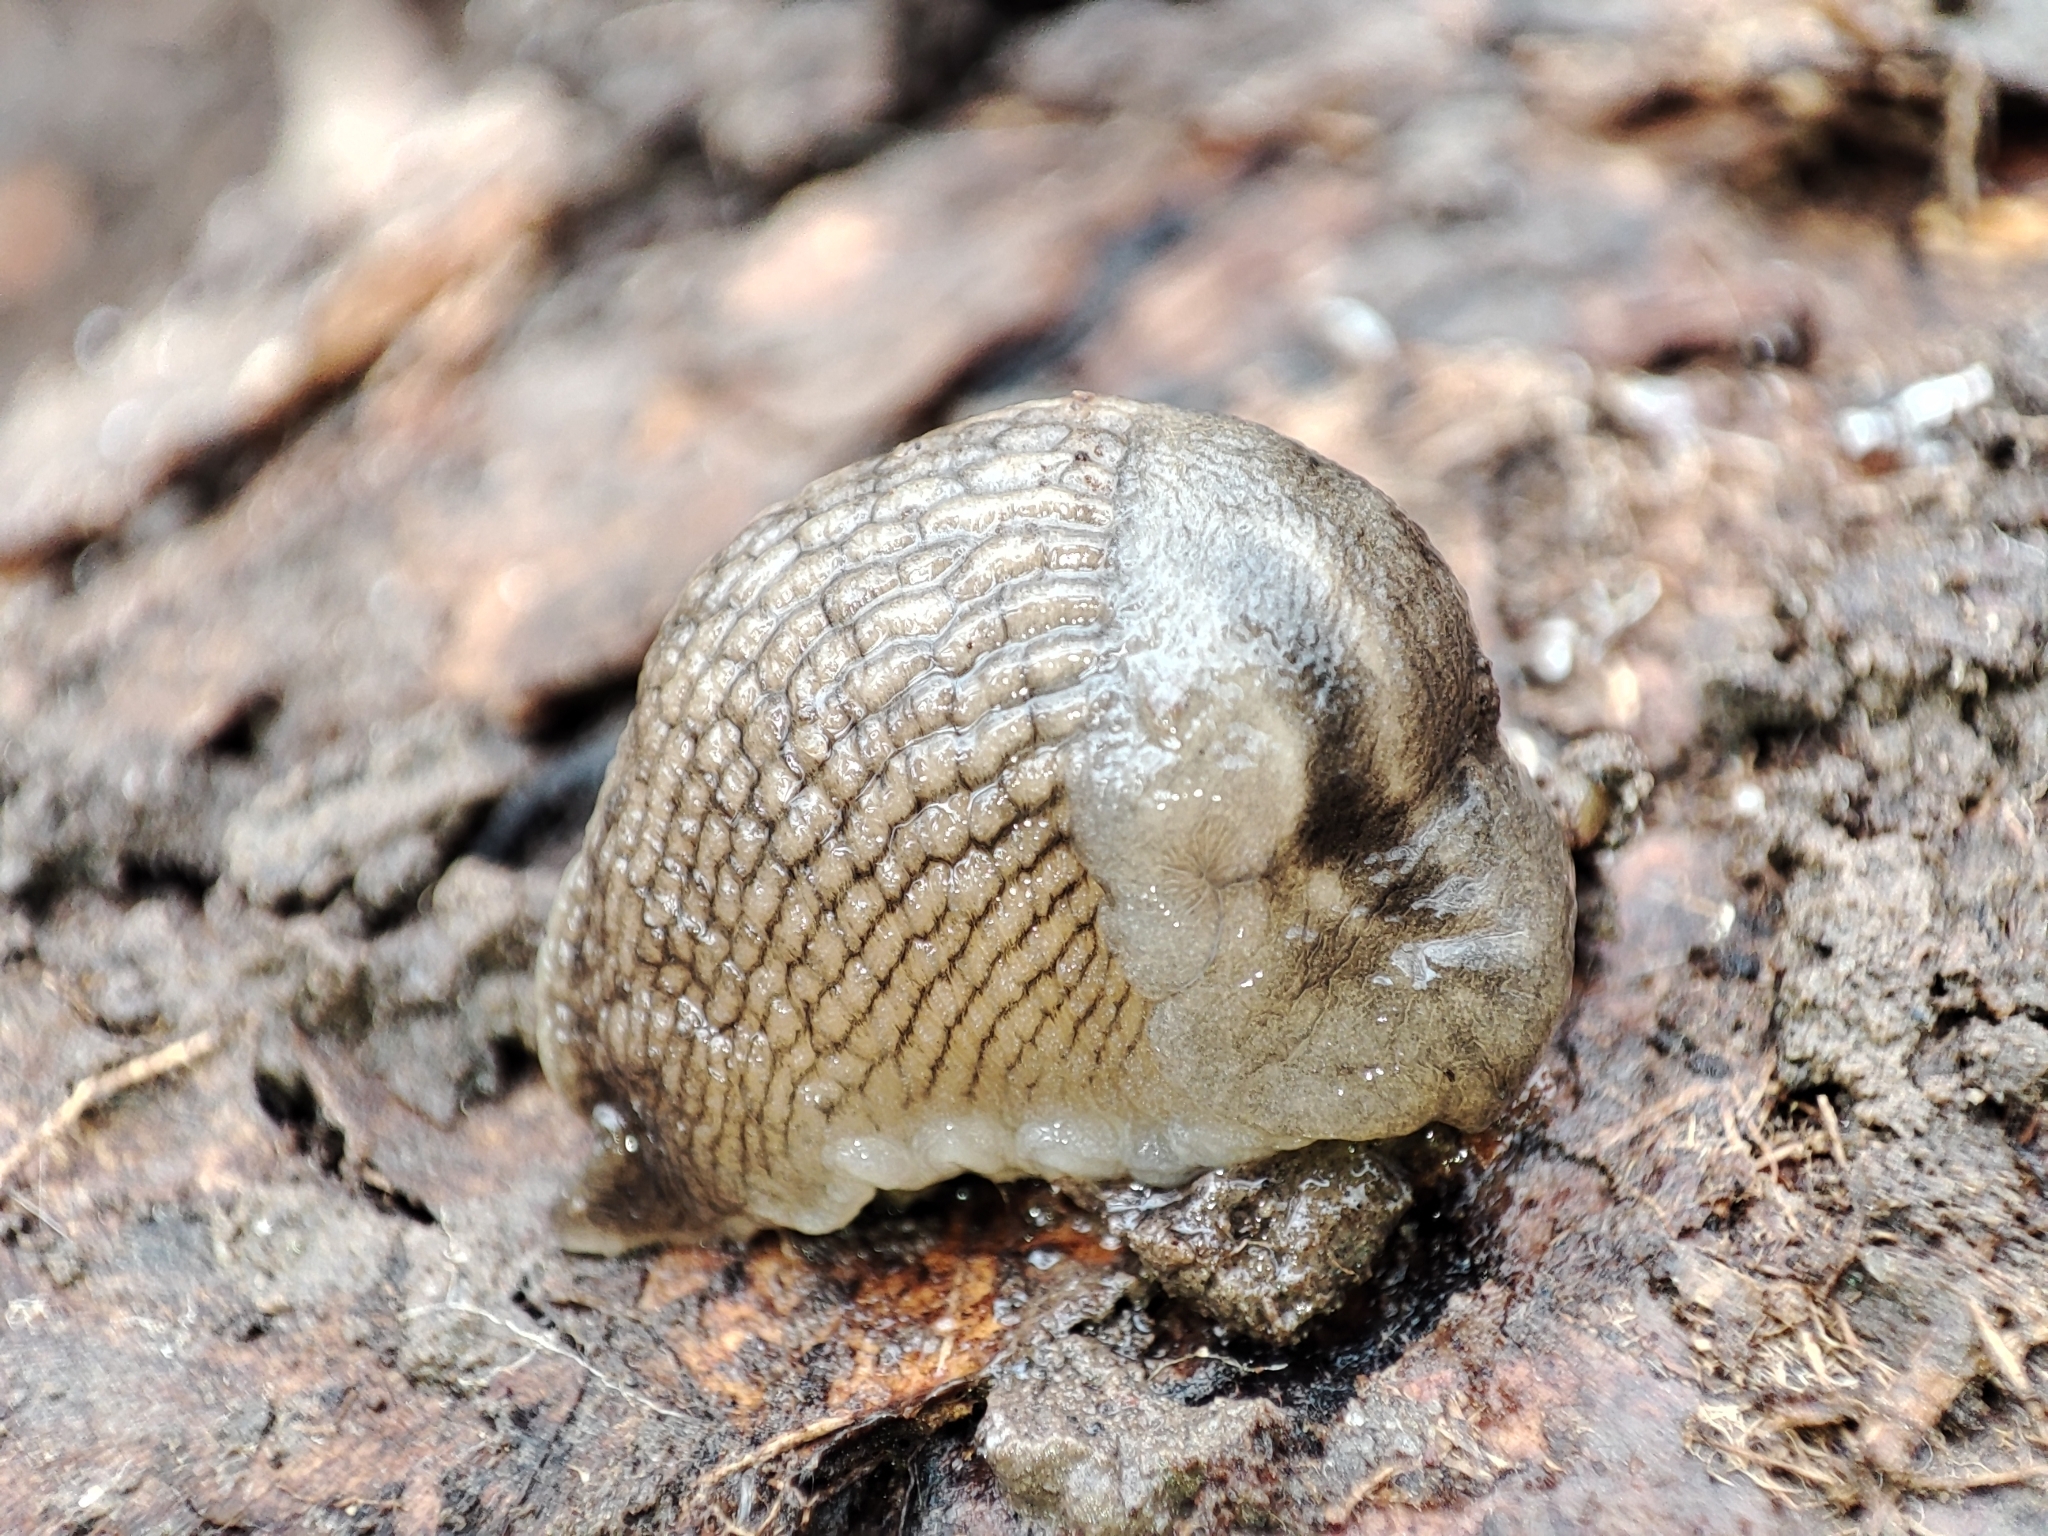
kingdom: Animalia
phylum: Mollusca
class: Gastropoda
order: Stylommatophora
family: Limacidae
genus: Lehmannia
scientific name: Lehmannia marginata
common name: Tree slug
